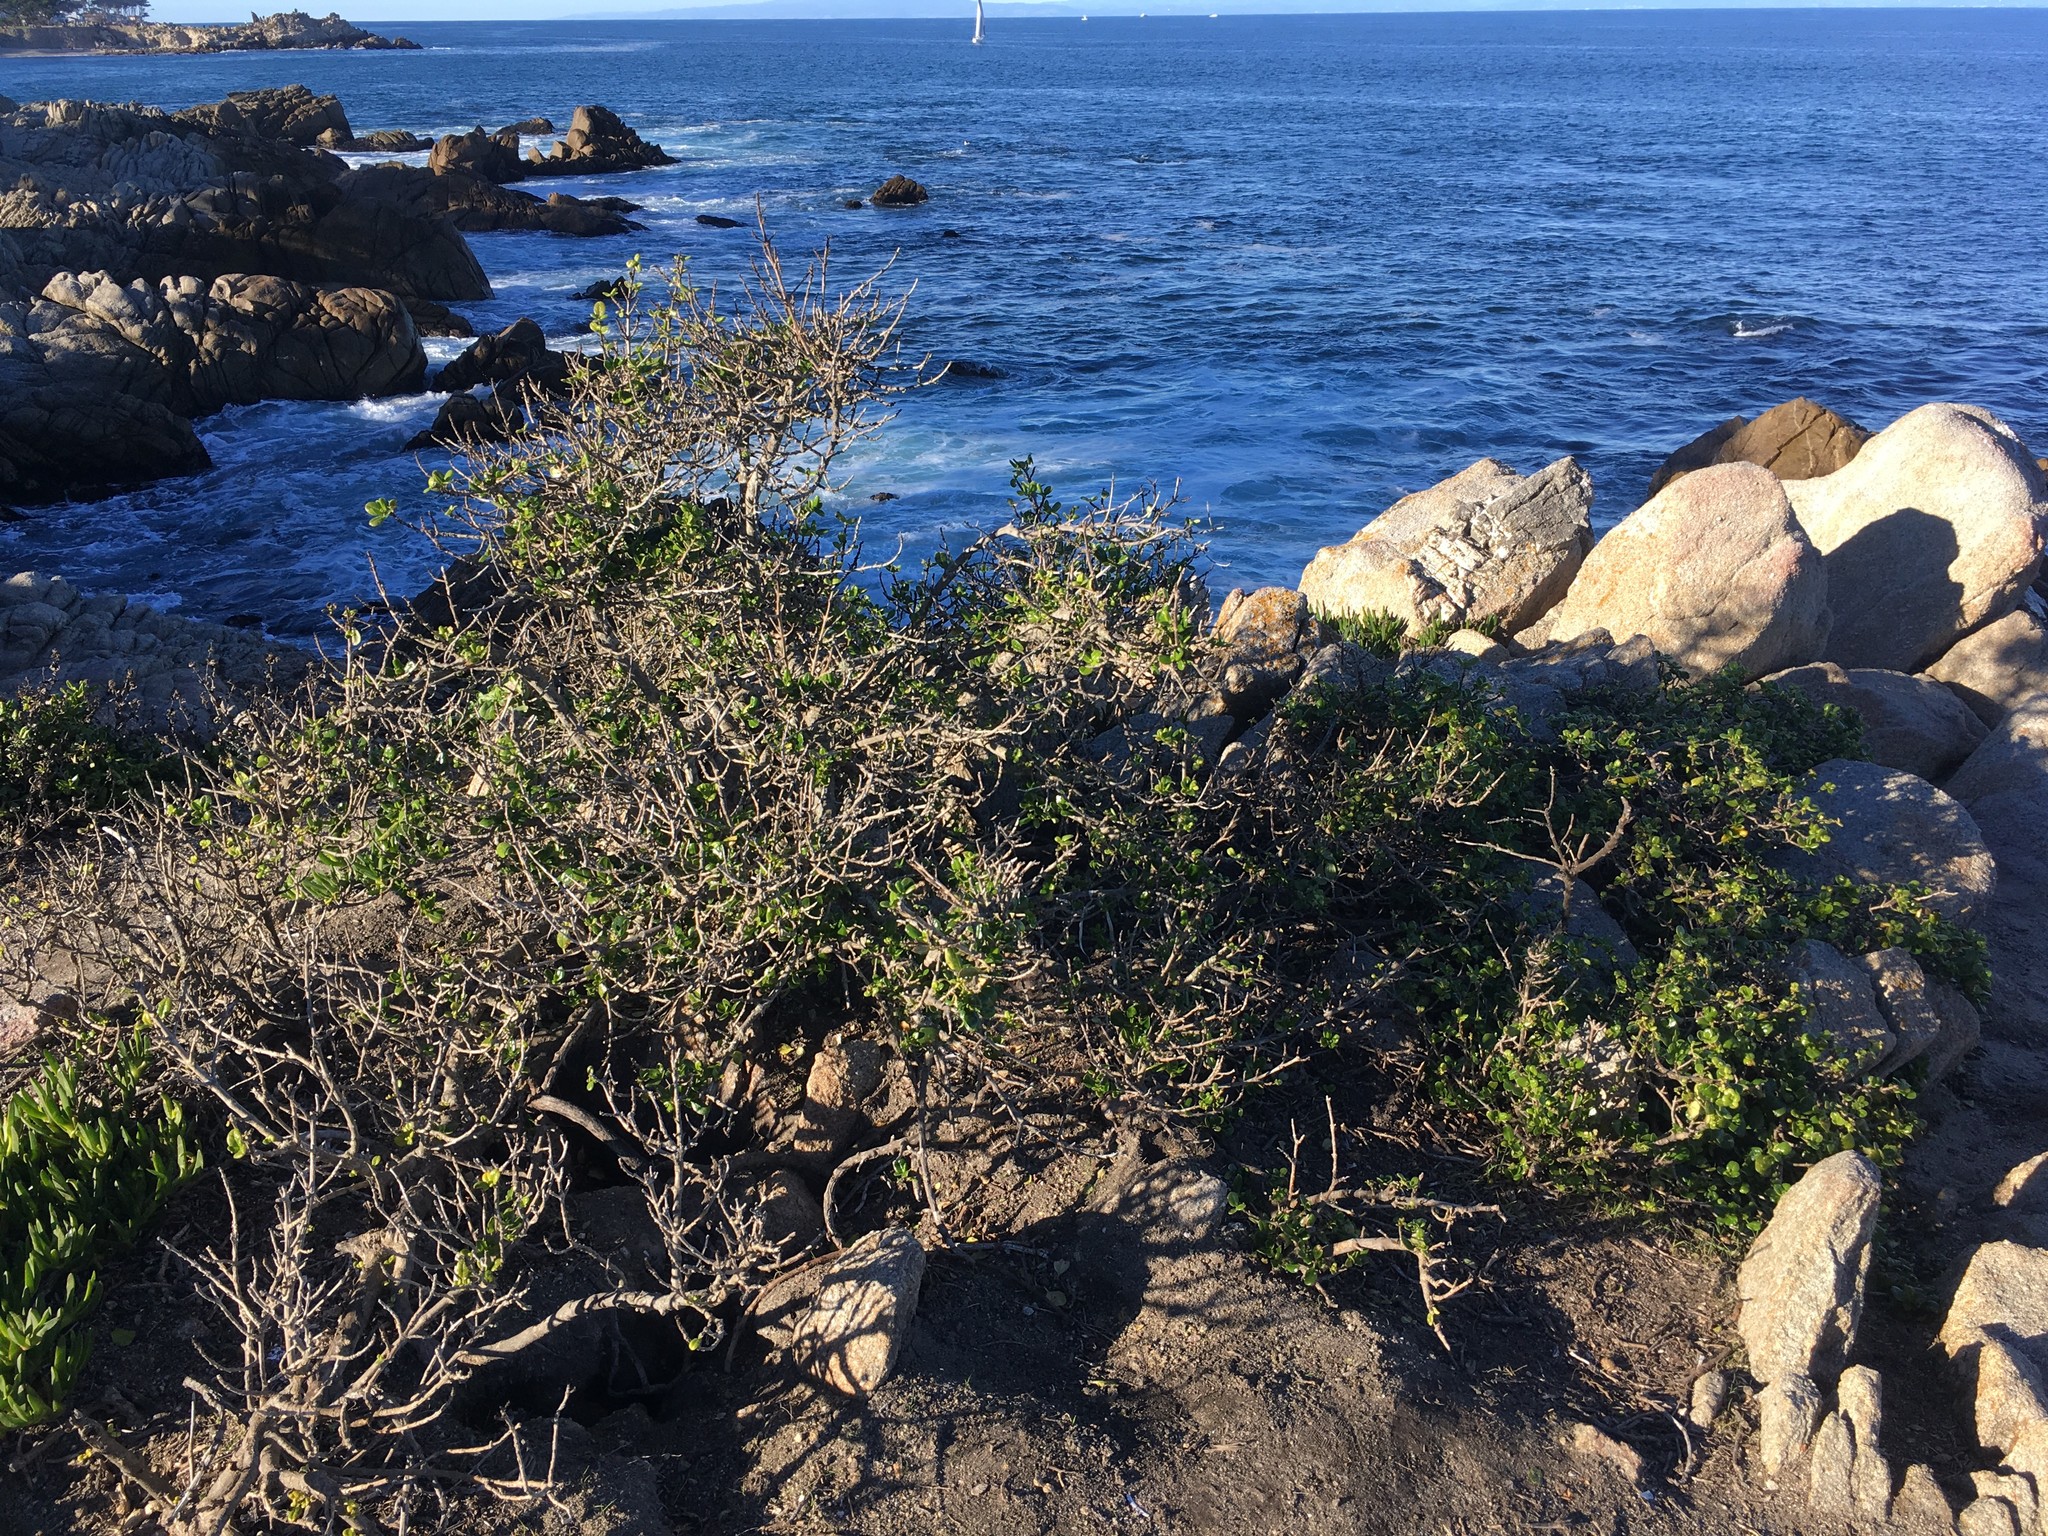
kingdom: Plantae
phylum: Tracheophyta
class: Magnoliopsida
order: Gentianales
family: Rubiaceae
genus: Coprosma
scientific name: Coprosma repens
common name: Tree bedstraw
